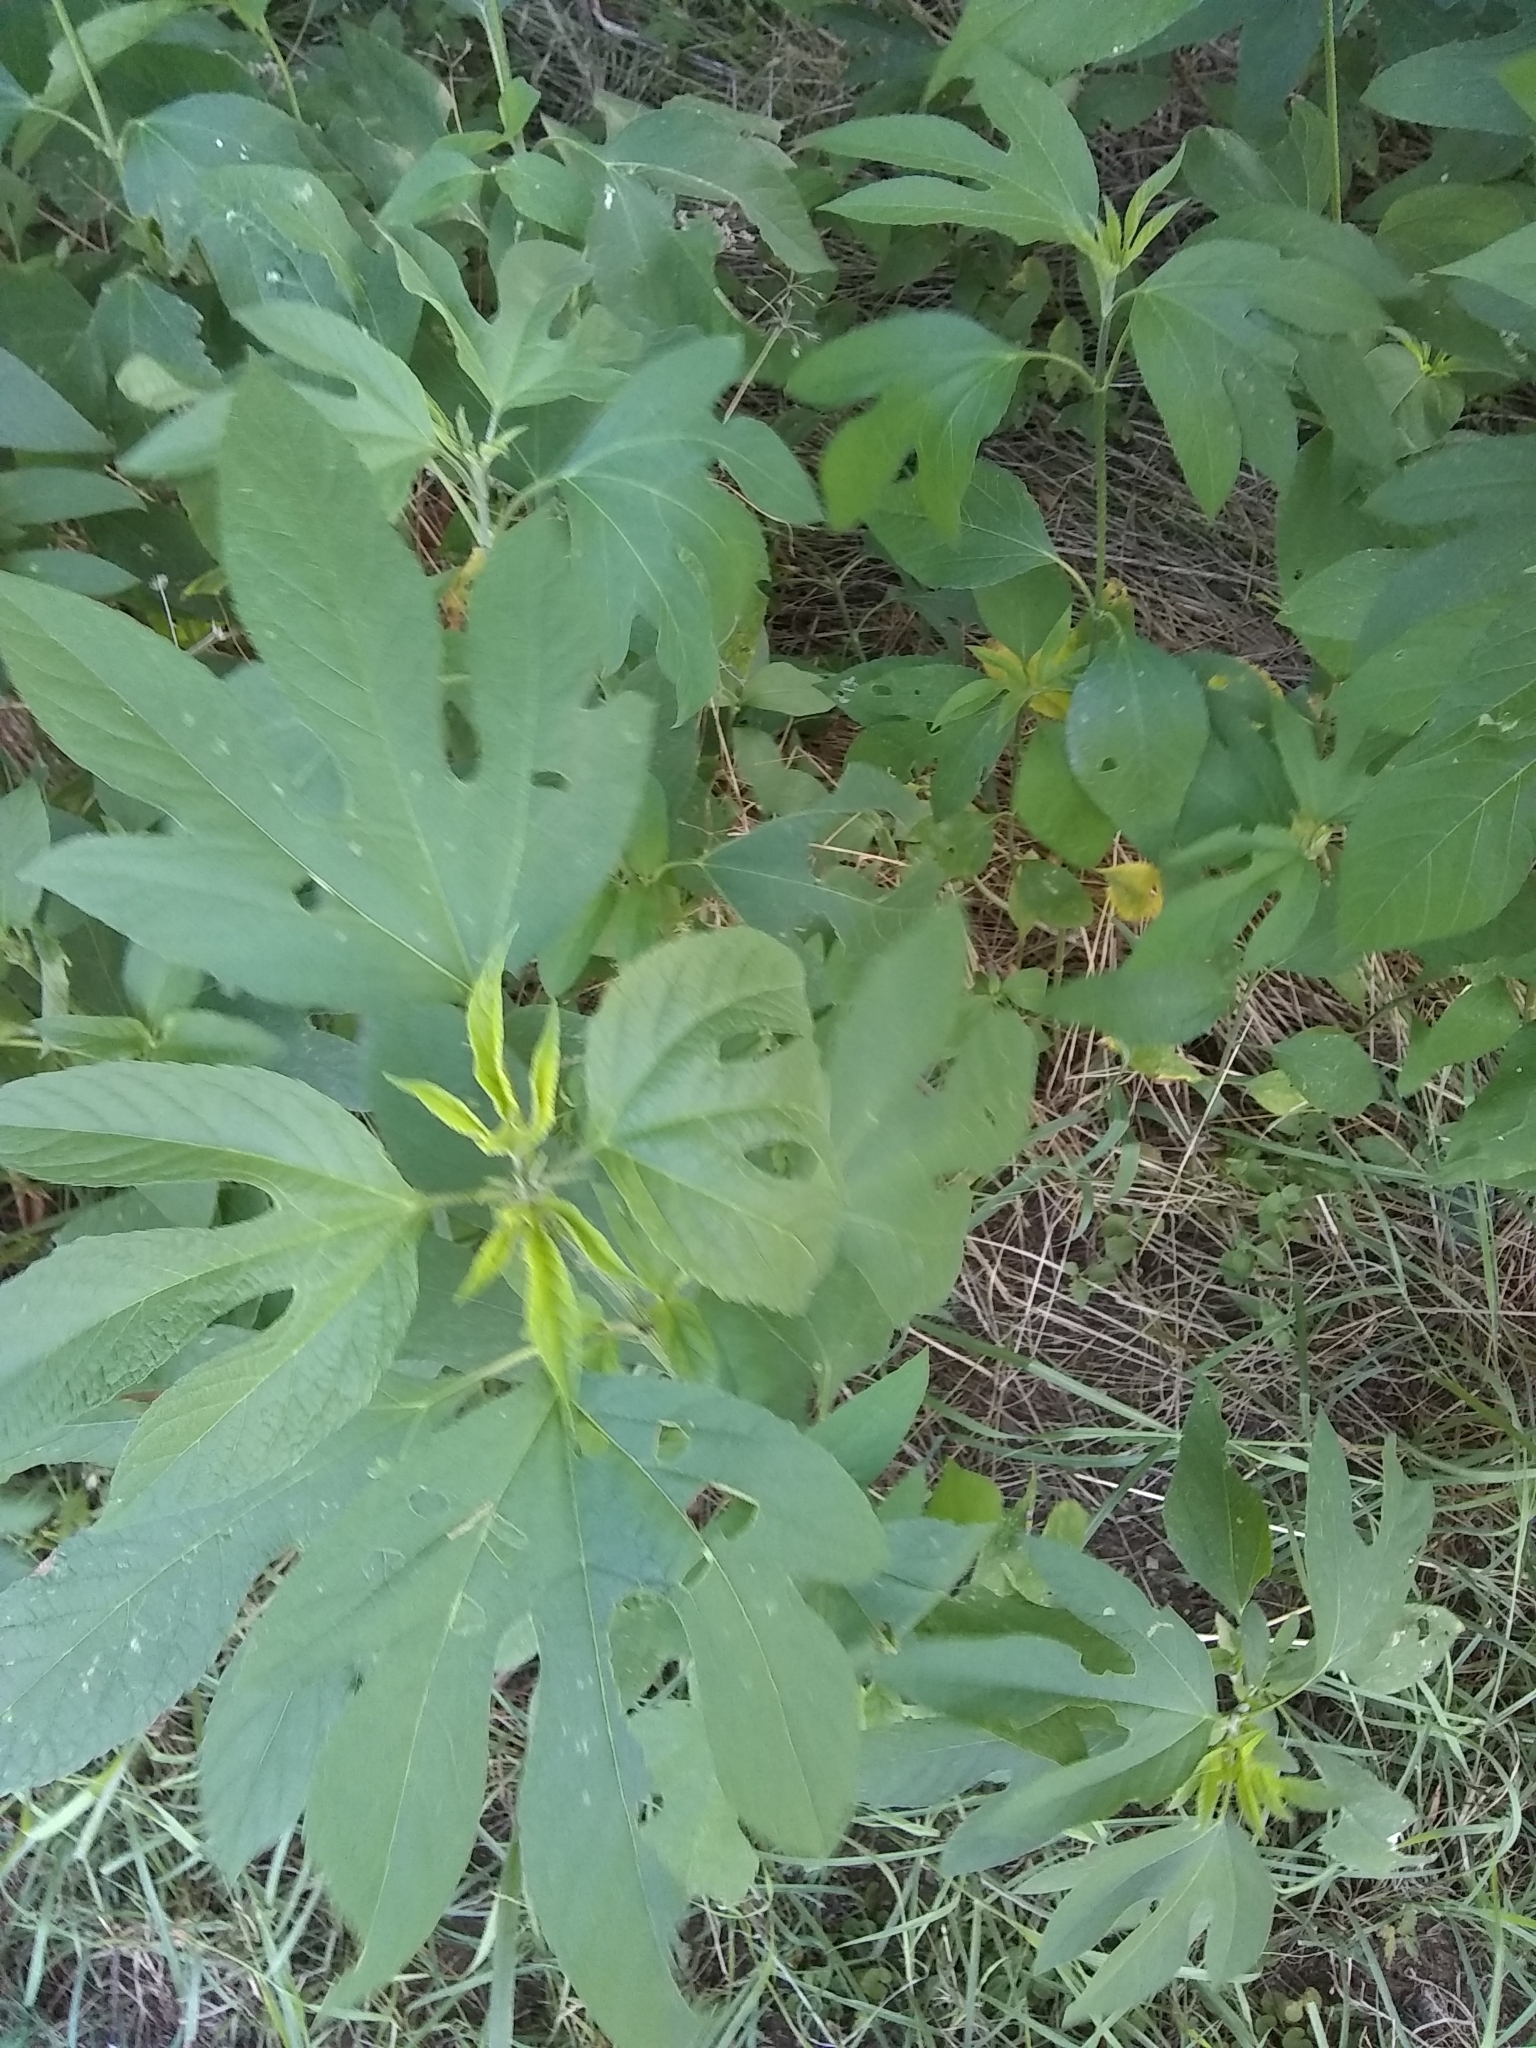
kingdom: Plantae
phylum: Tracheophyta
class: Magnoliopsida
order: Asterales
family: Asteraceae
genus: Ambrosia
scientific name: Ambrosia trifida
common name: Giant ragweed
